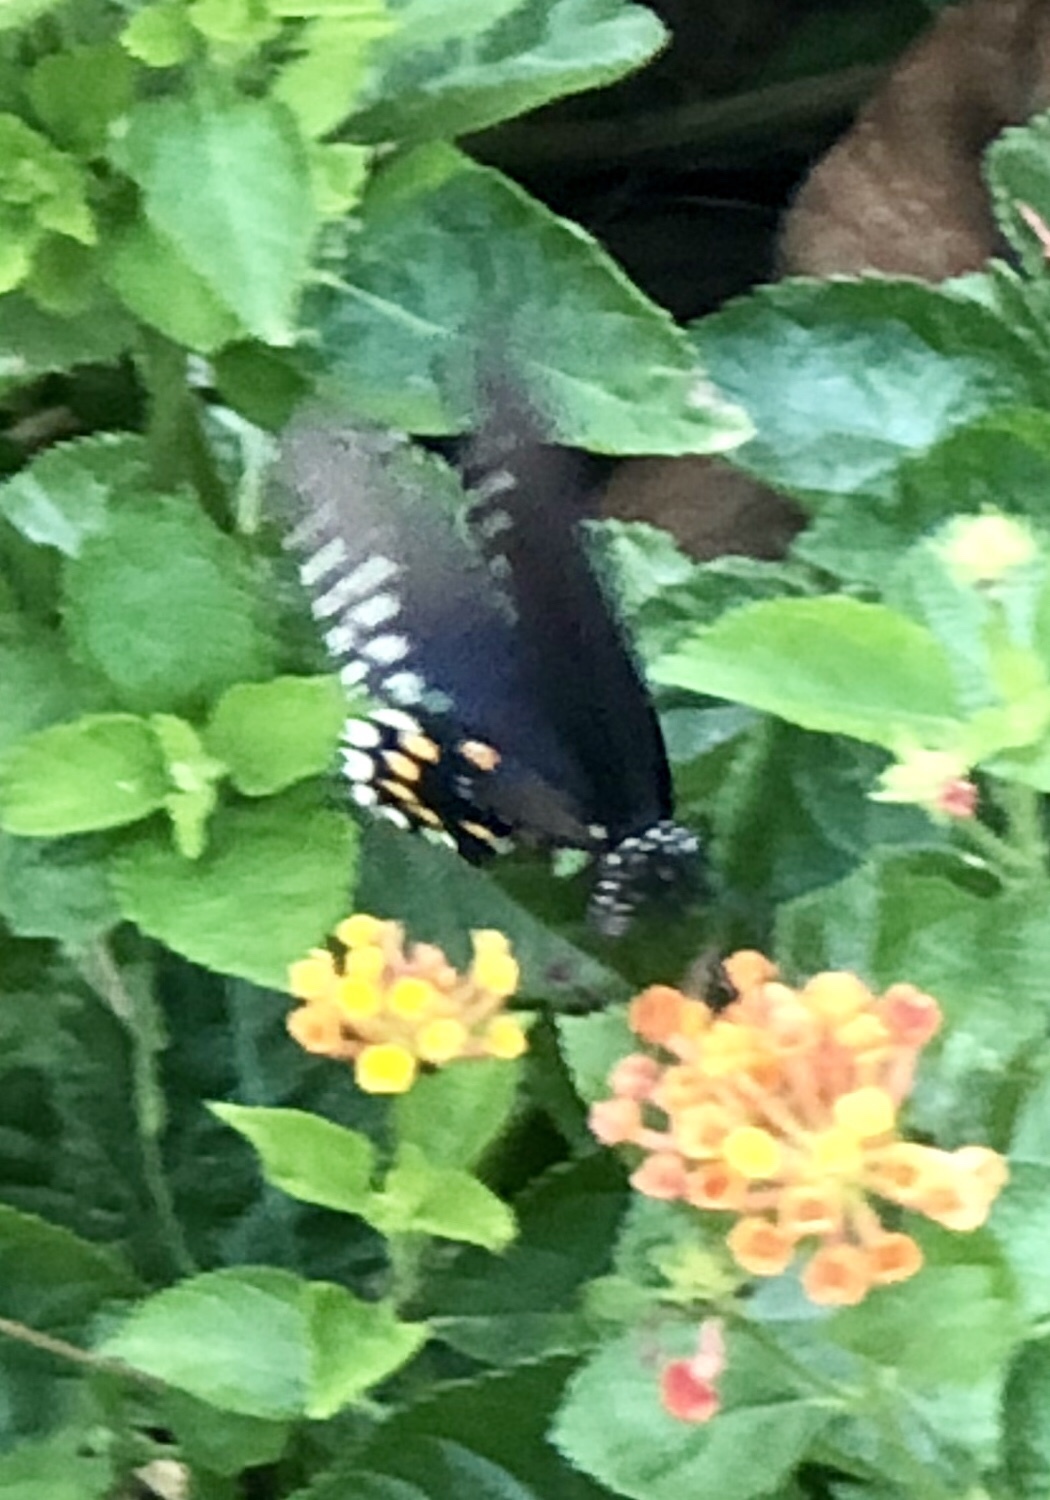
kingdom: Animalia
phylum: Arthropoda
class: Insecta
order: Lepidoptera
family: Papilionidae
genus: Battus
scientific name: Battus philenor
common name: Pipevine swallowtail
